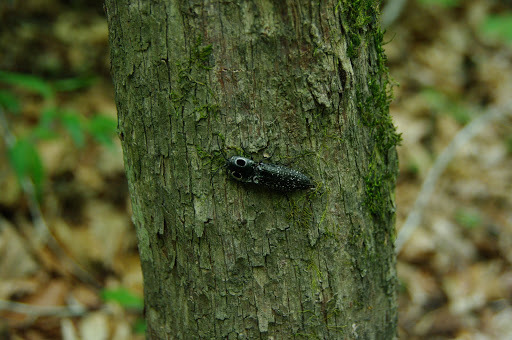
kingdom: Animalia
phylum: Arthropoda
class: Insecta
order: Coleoptera
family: Elateridae
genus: Alaus
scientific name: Alaus oculatus
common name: Eastern eyed click beetle
